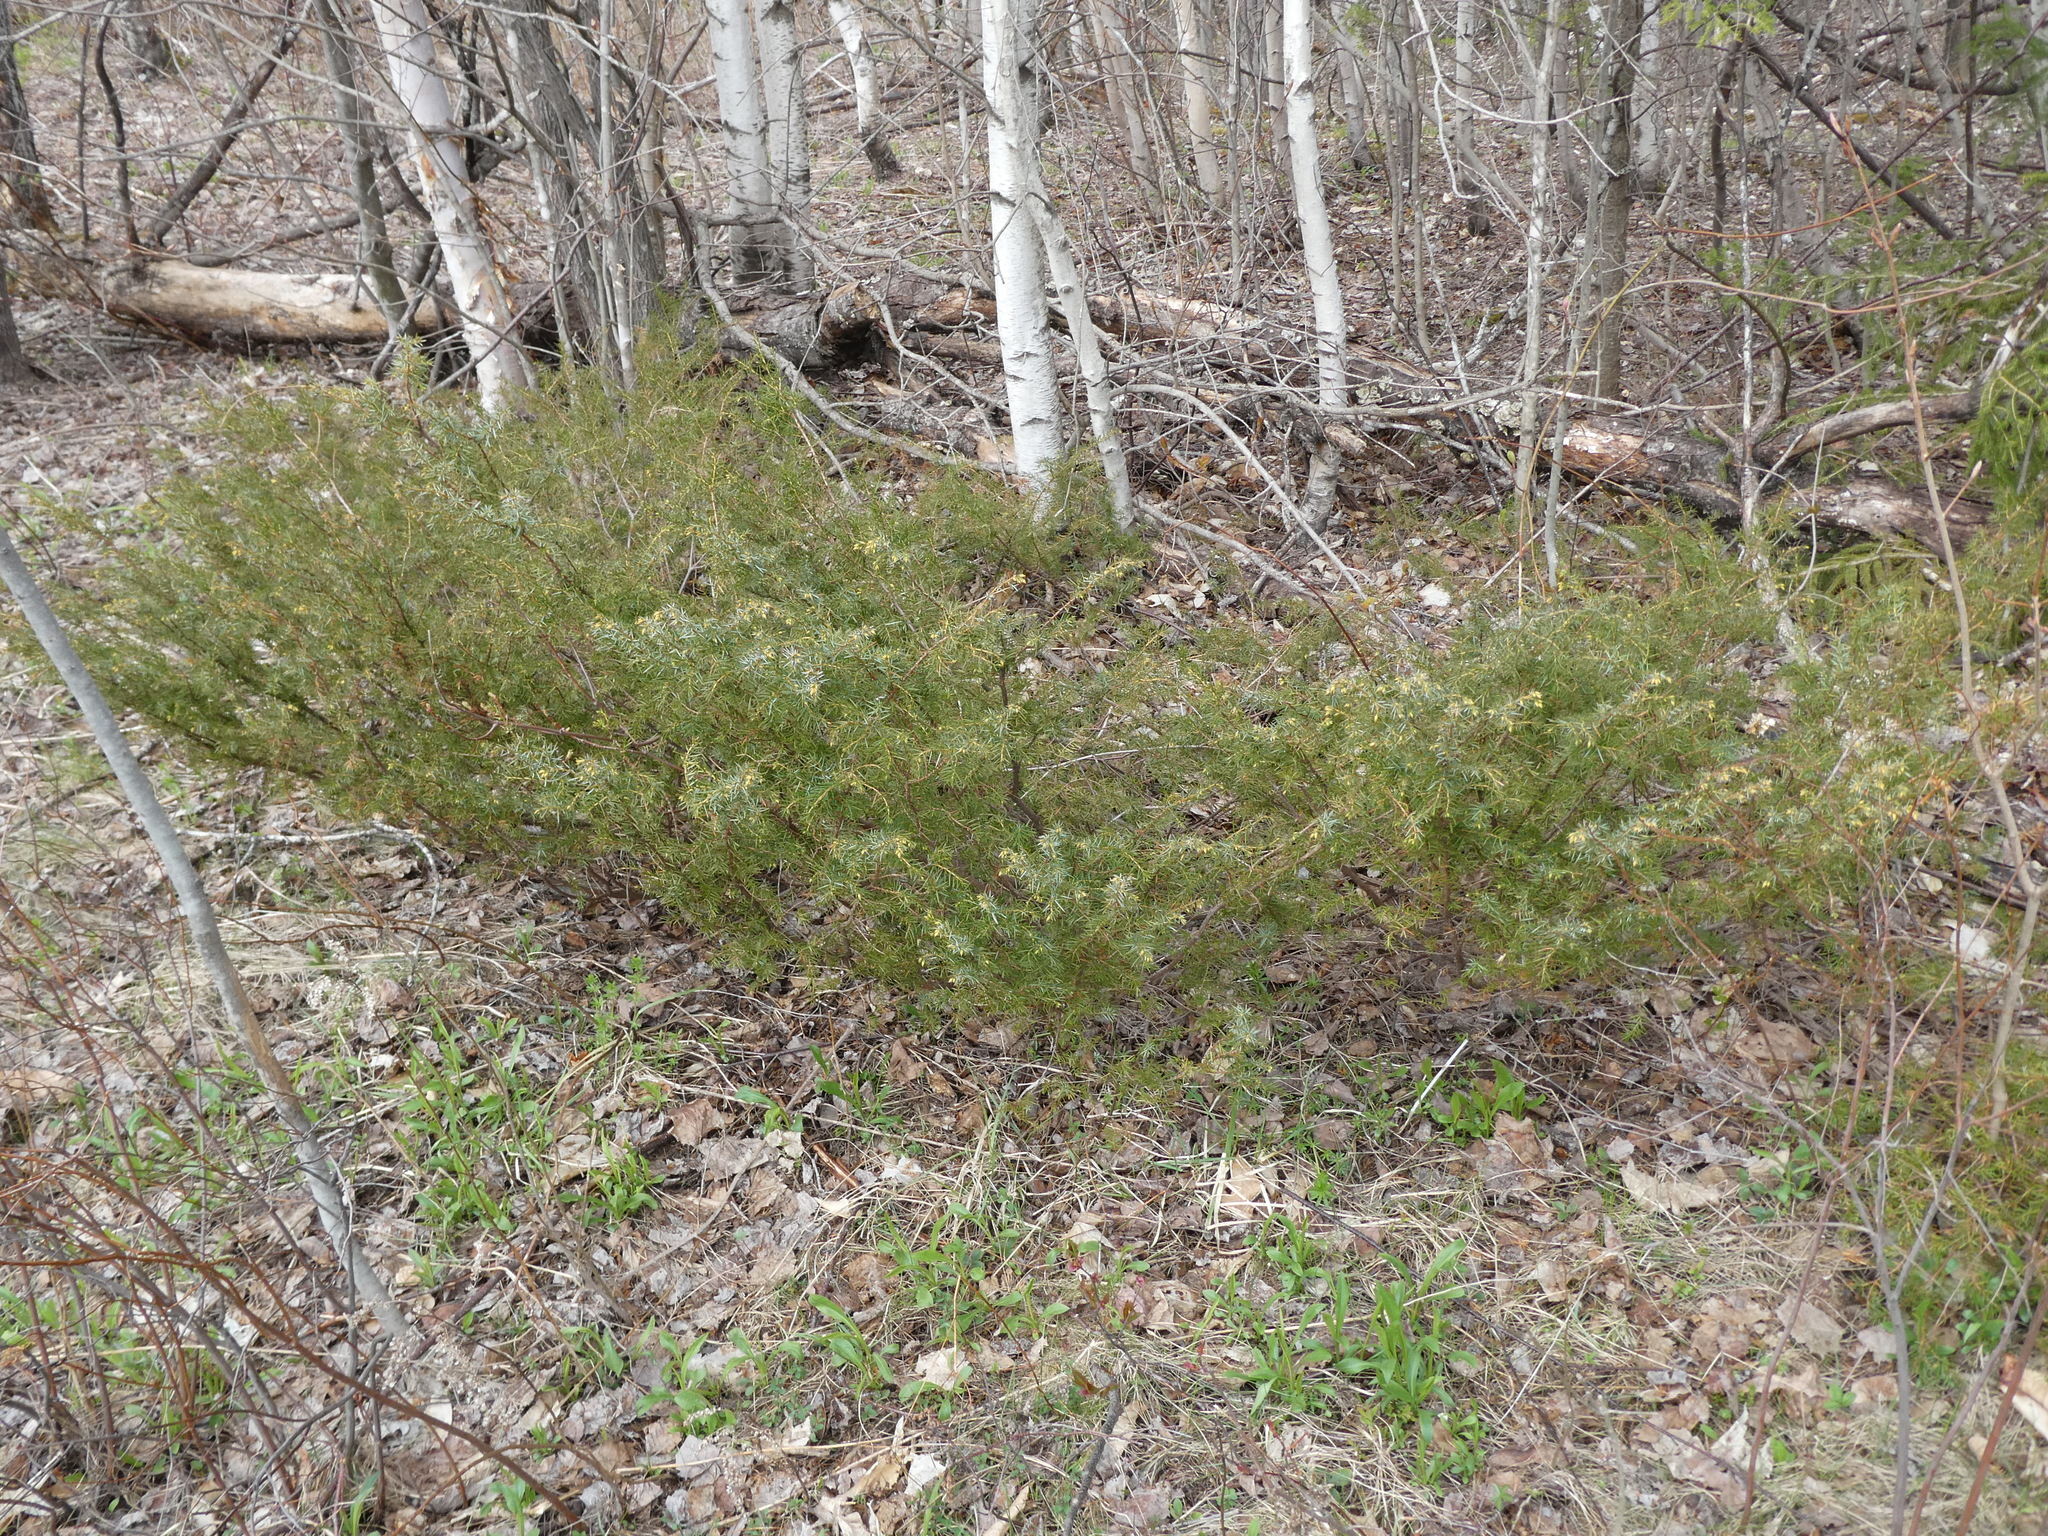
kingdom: Plantae
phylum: Tracheophyta
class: Pinopsida
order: Pinales
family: Cupressaceae
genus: Juniperus
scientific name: Juniperus communis
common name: Common juniper
